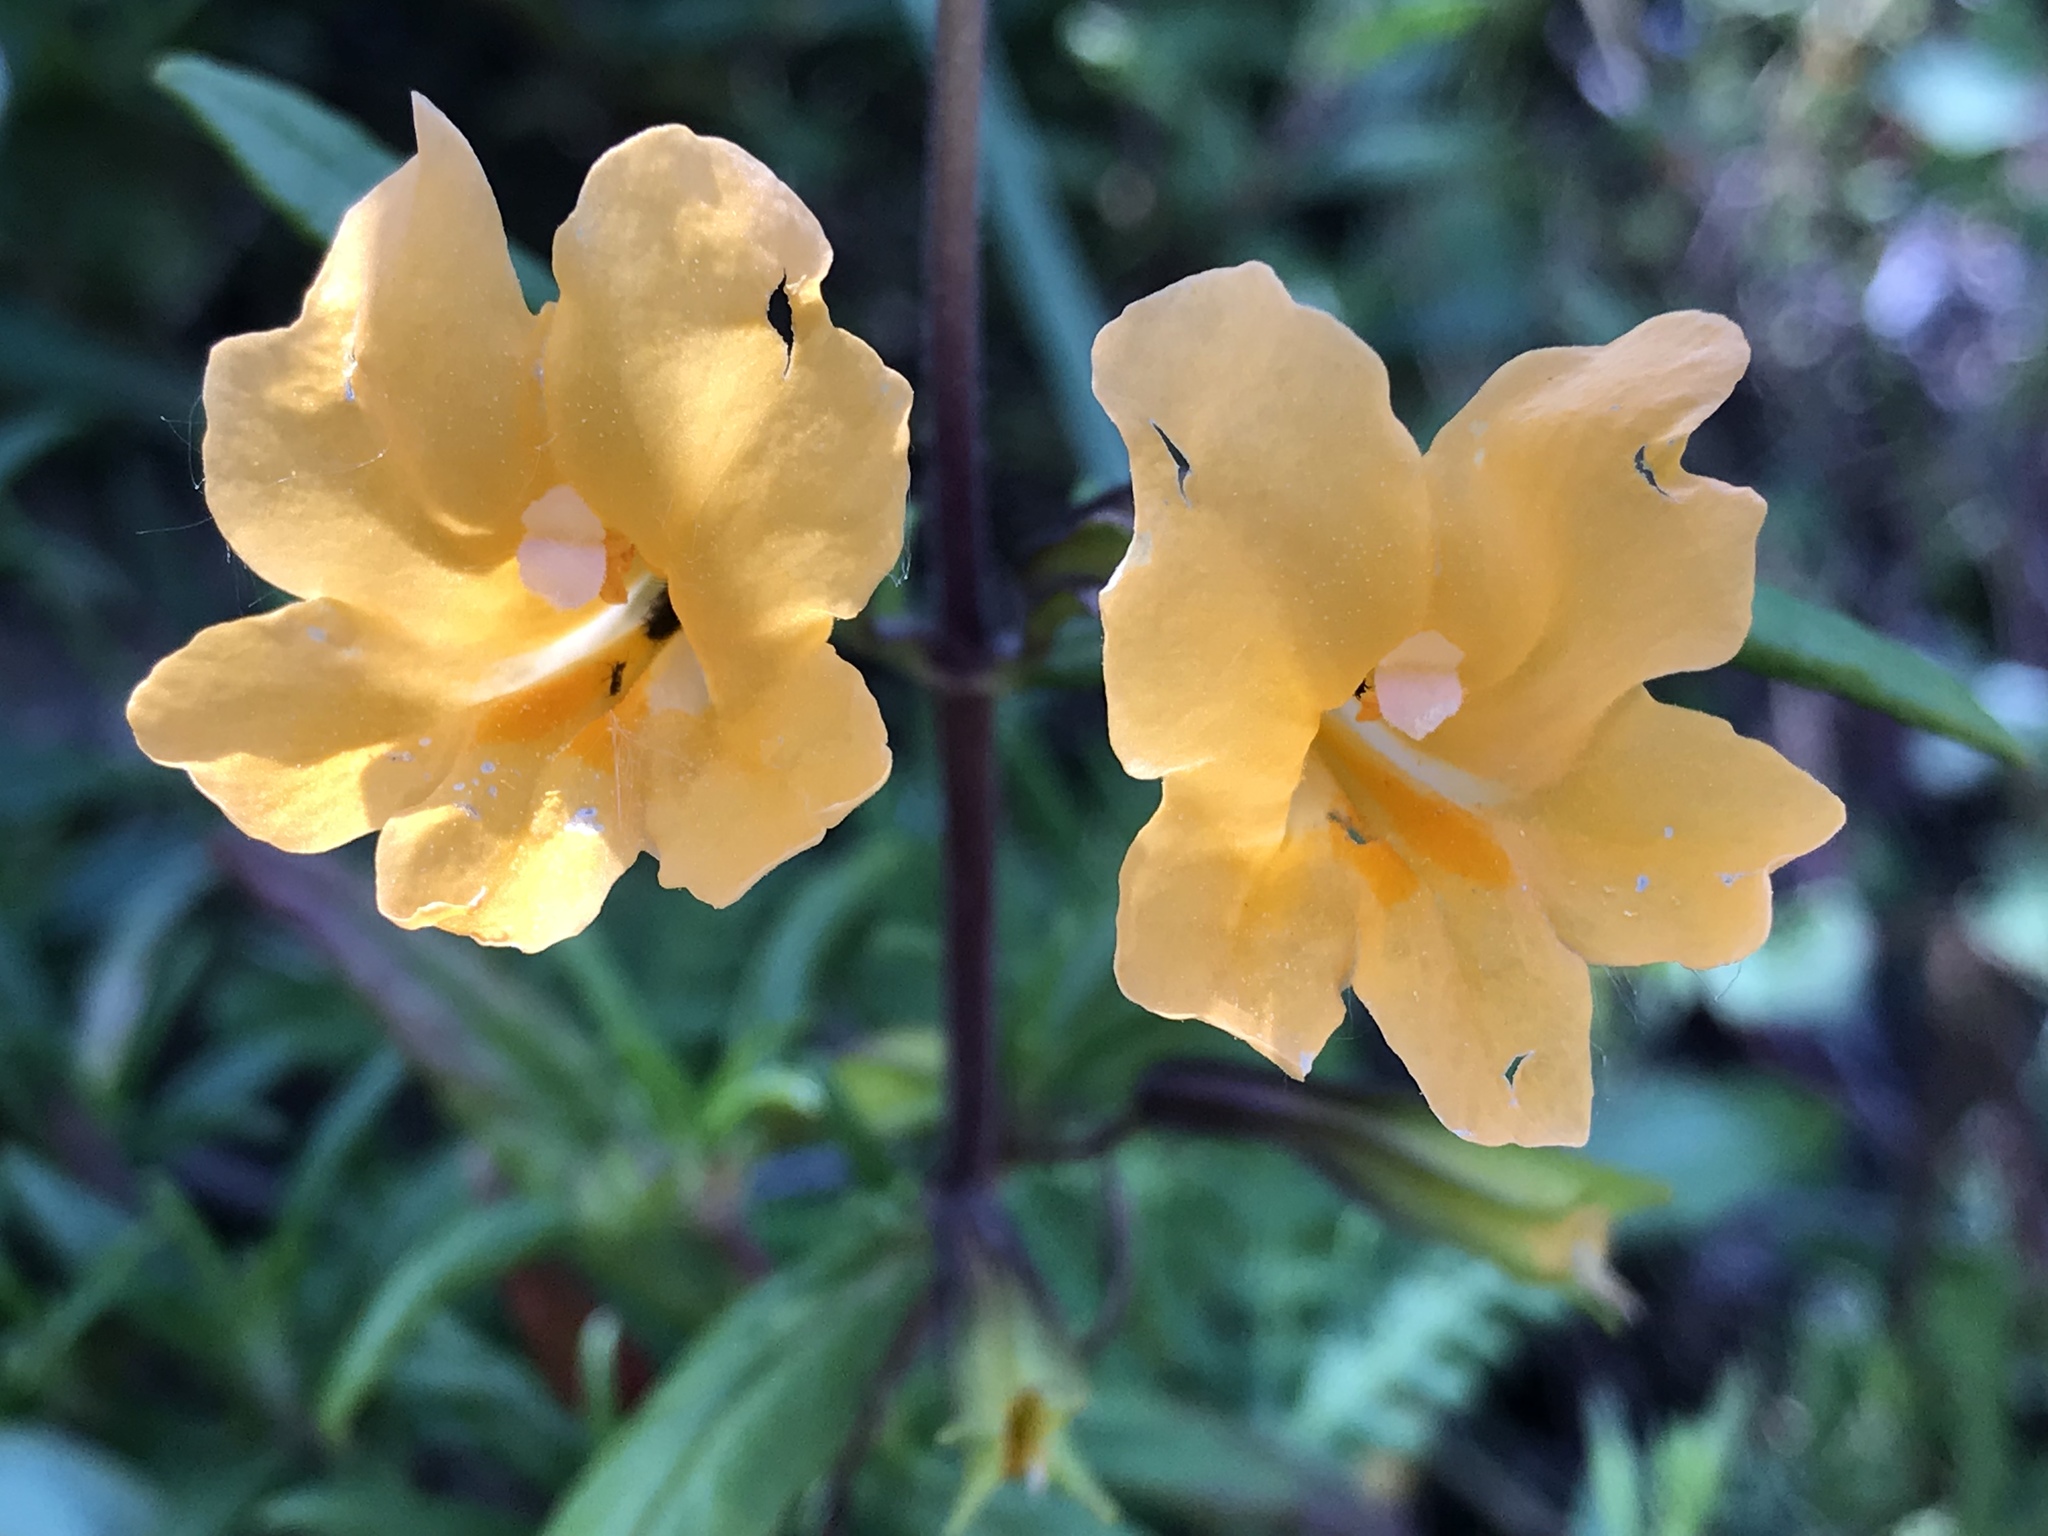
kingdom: Plantae
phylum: Tracheophyta
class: Magnoliopsida
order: Lamiales
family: Phrymaceae
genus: Diplacus
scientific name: Diplacus aurantiacus
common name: Bush monkey-flower
